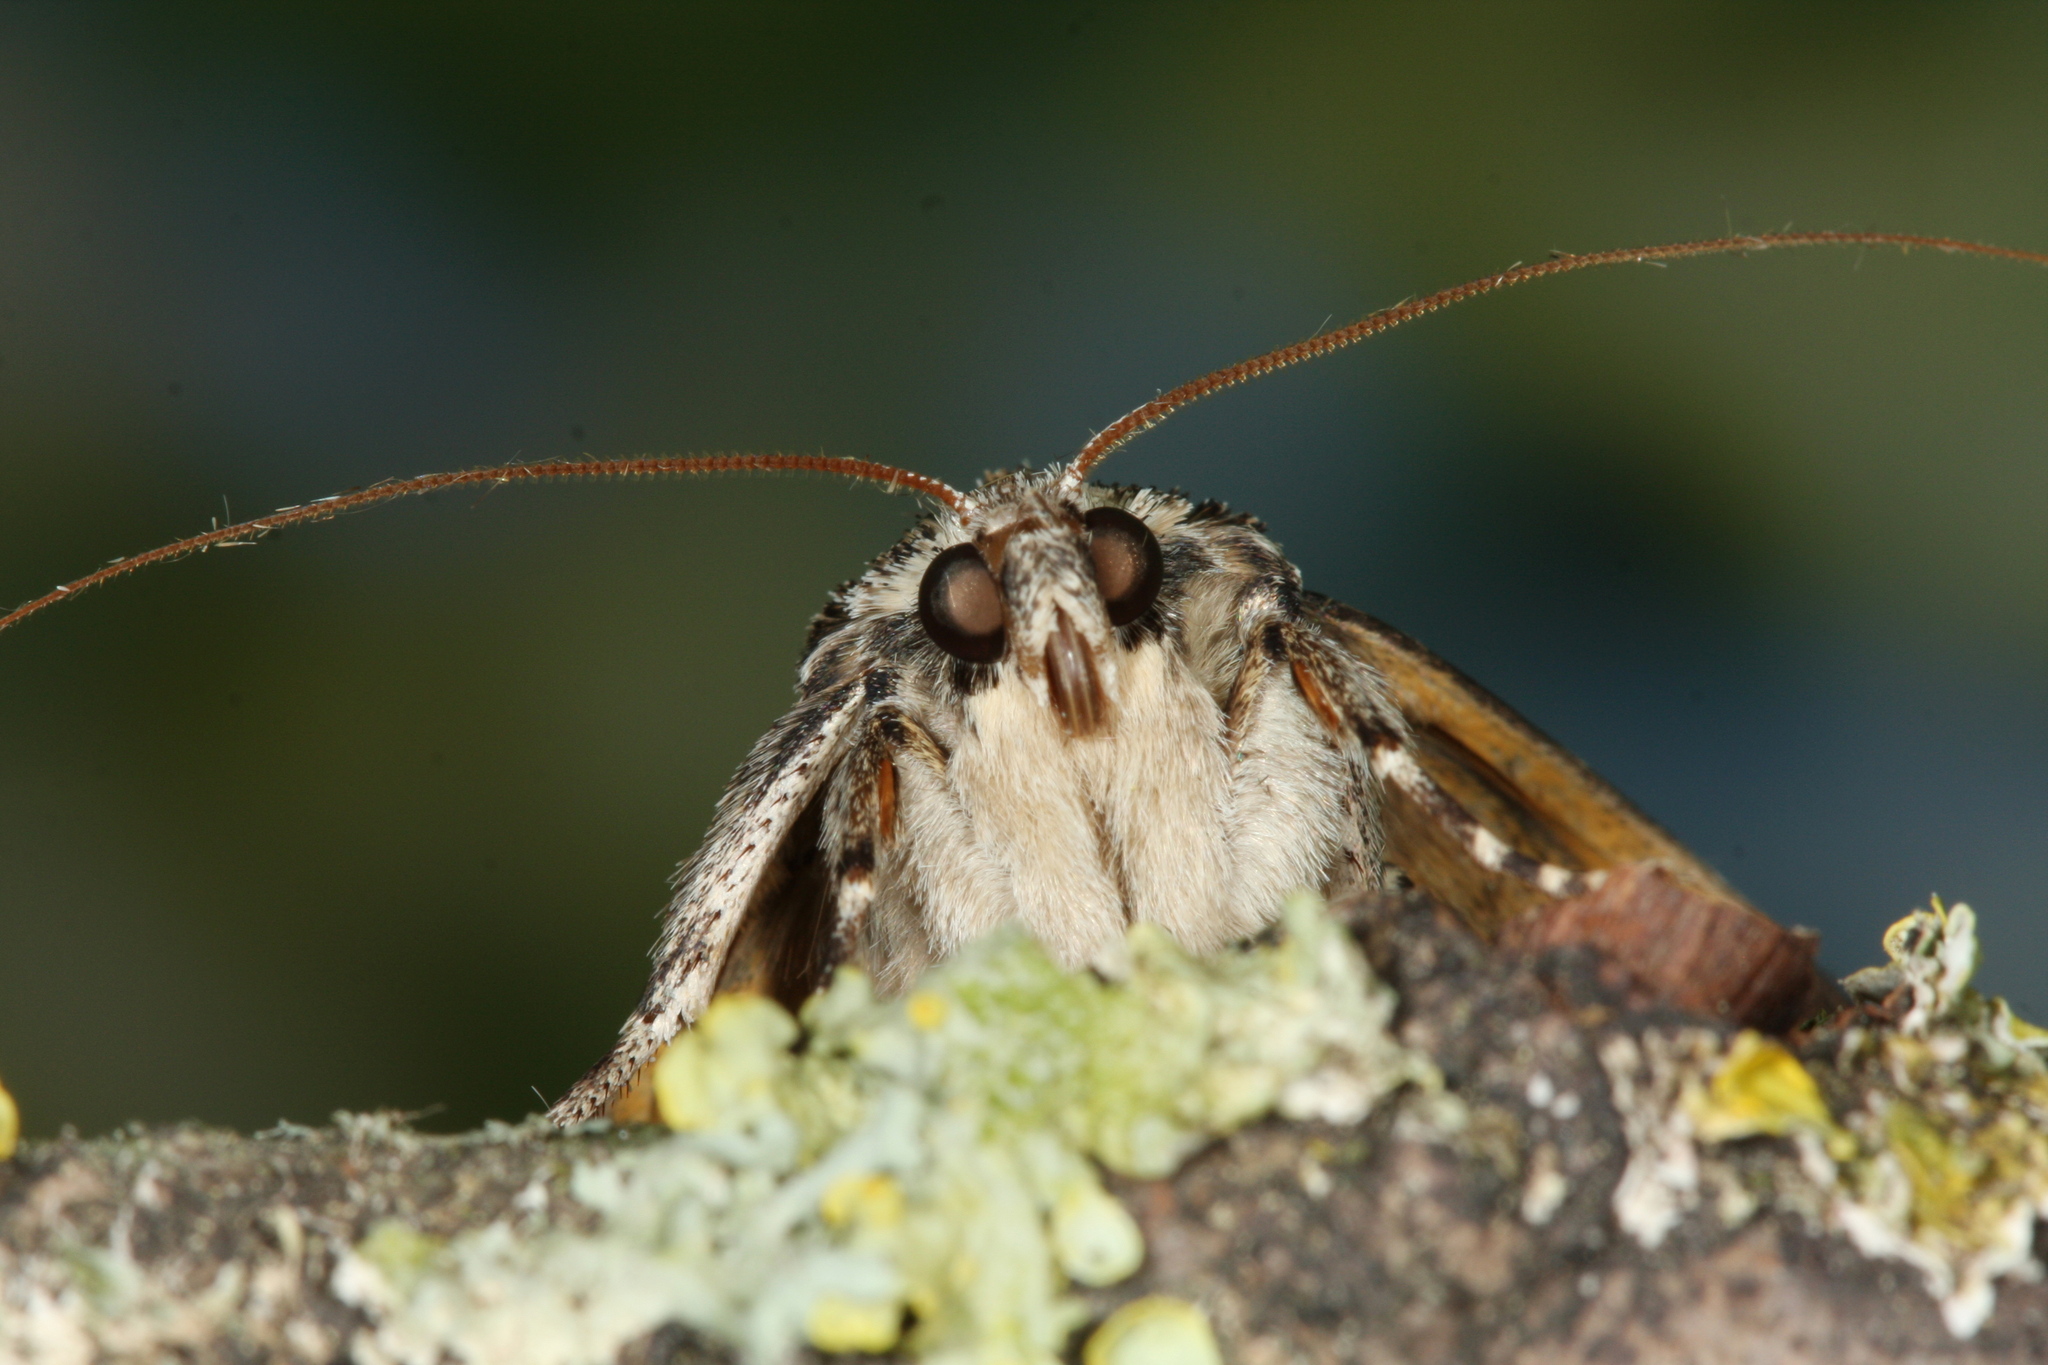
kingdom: Animalia
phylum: Arthropoda
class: Insecta
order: Lepidoptera
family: Erebidae
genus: Catocala
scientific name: Catocala fulminea
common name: Yellow bands underwing
